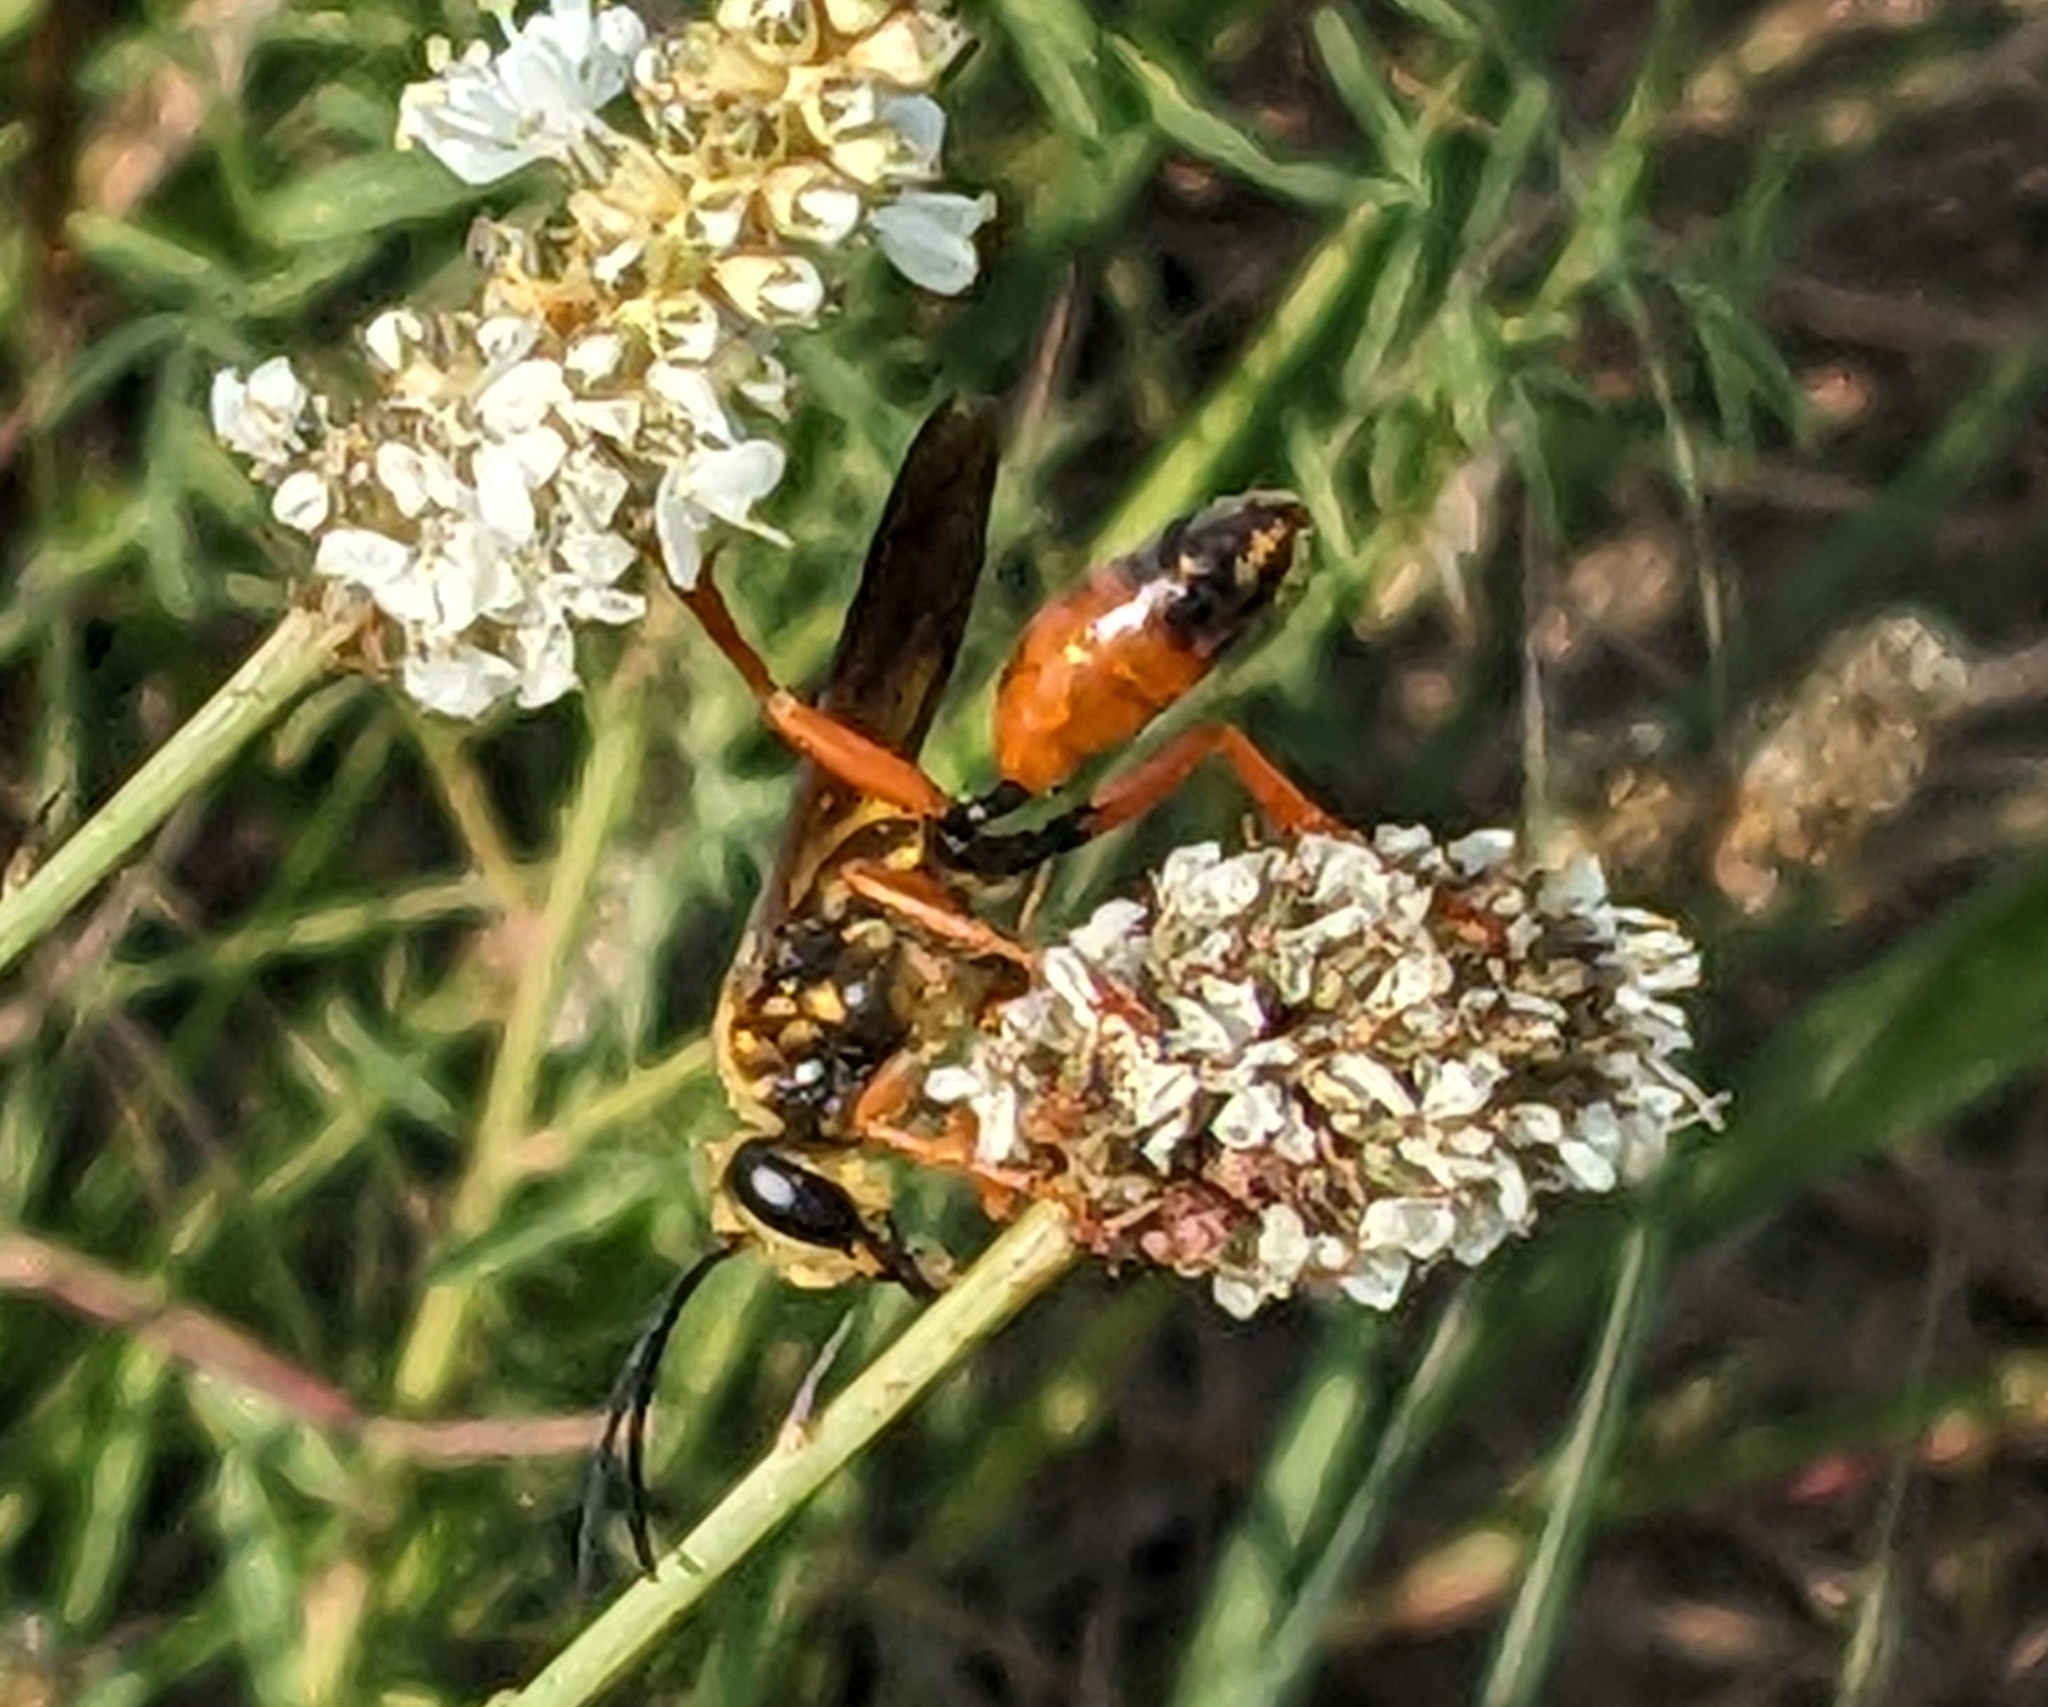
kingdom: Animalia
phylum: Arthropoda
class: Insecta
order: Hymenoptera
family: Sphecidae
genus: Sphex
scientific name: Sphex ichneumoneus
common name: Great golden digger wasp
